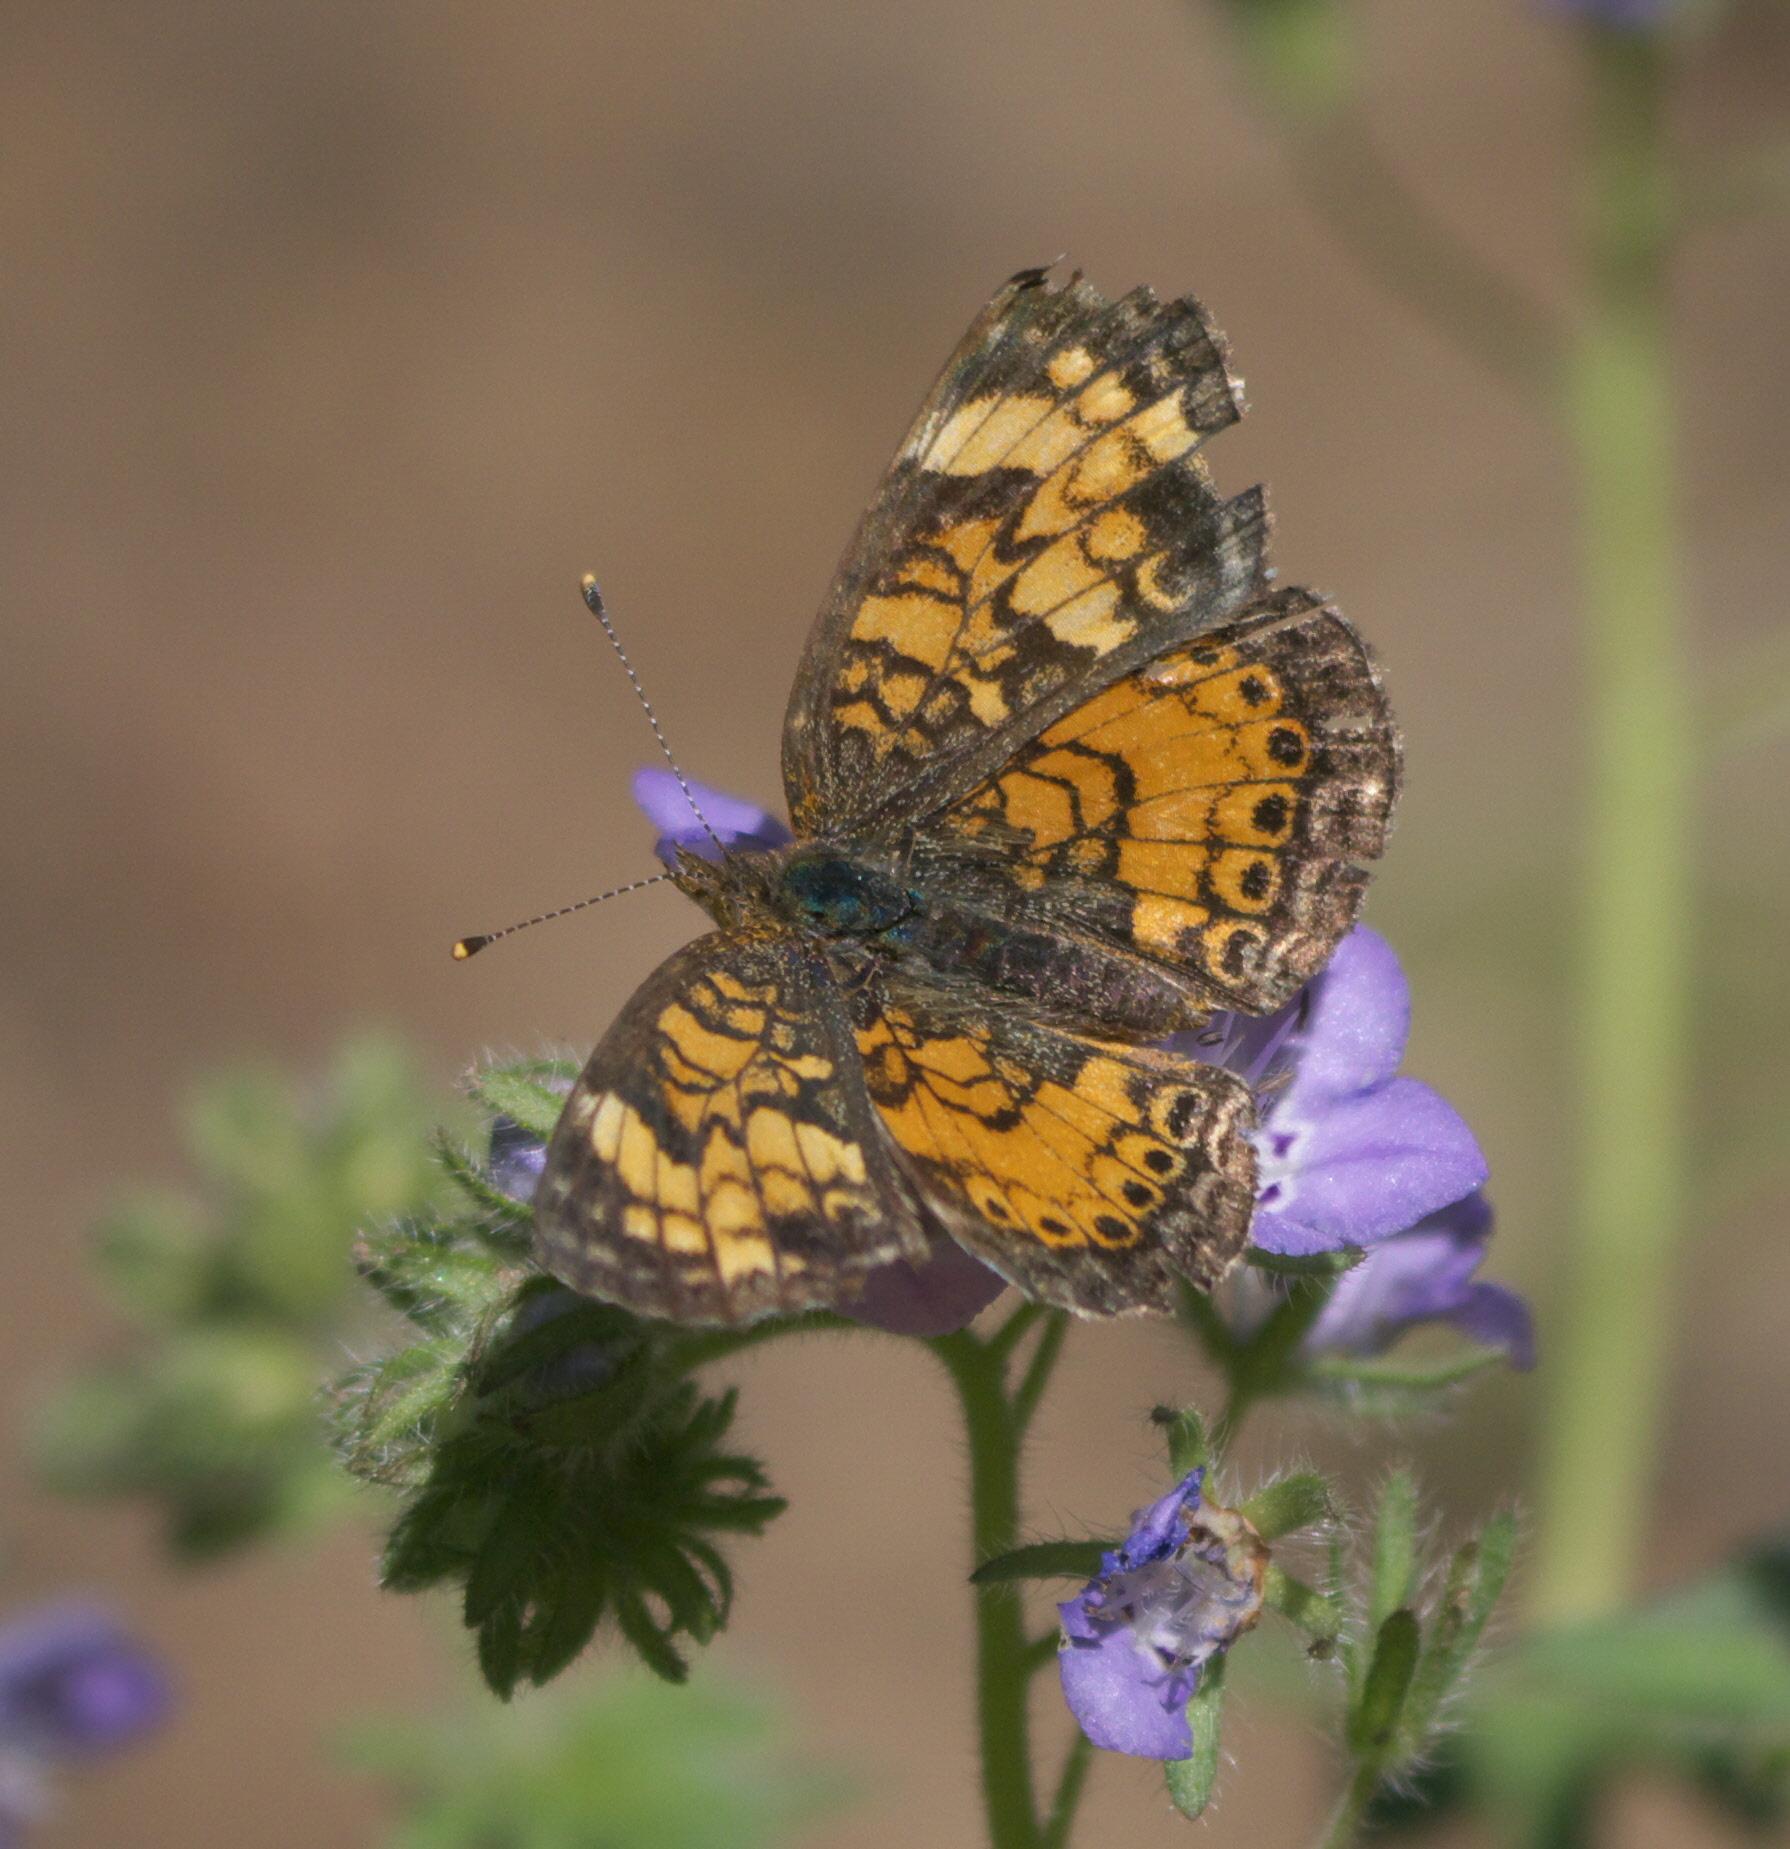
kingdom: Animalia
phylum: Arthropoda
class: Insecta
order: Lepidoptera
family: Nymphalidae
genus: Phyciodes
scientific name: Phyciodes tharos
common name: Pearl crescent
